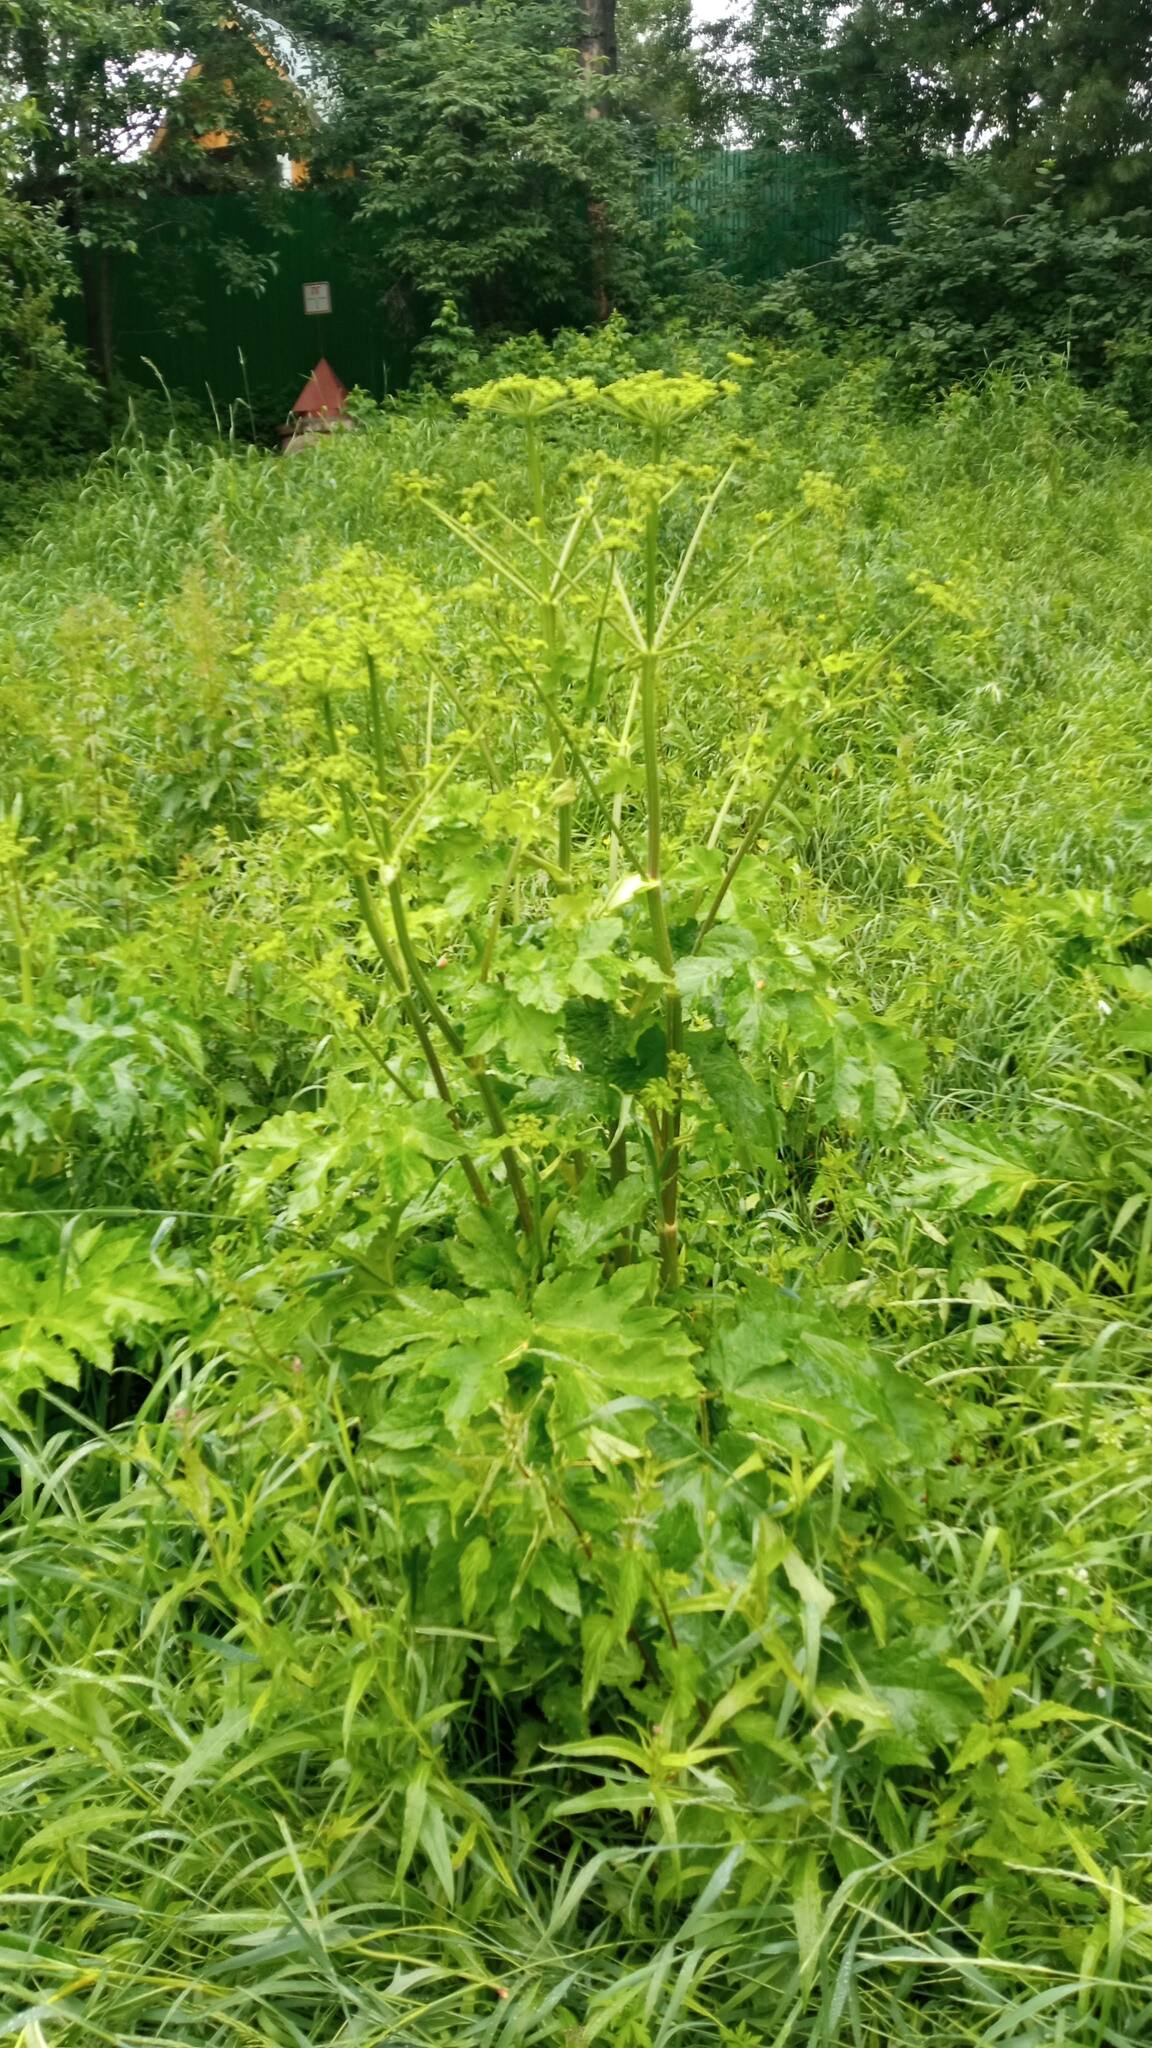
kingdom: Plantae
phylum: Tracheophyta
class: Magnoliopsida
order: Apiales
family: Apiaceae
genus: Heracleum
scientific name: Heracleum sphondylium
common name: Hogweed
